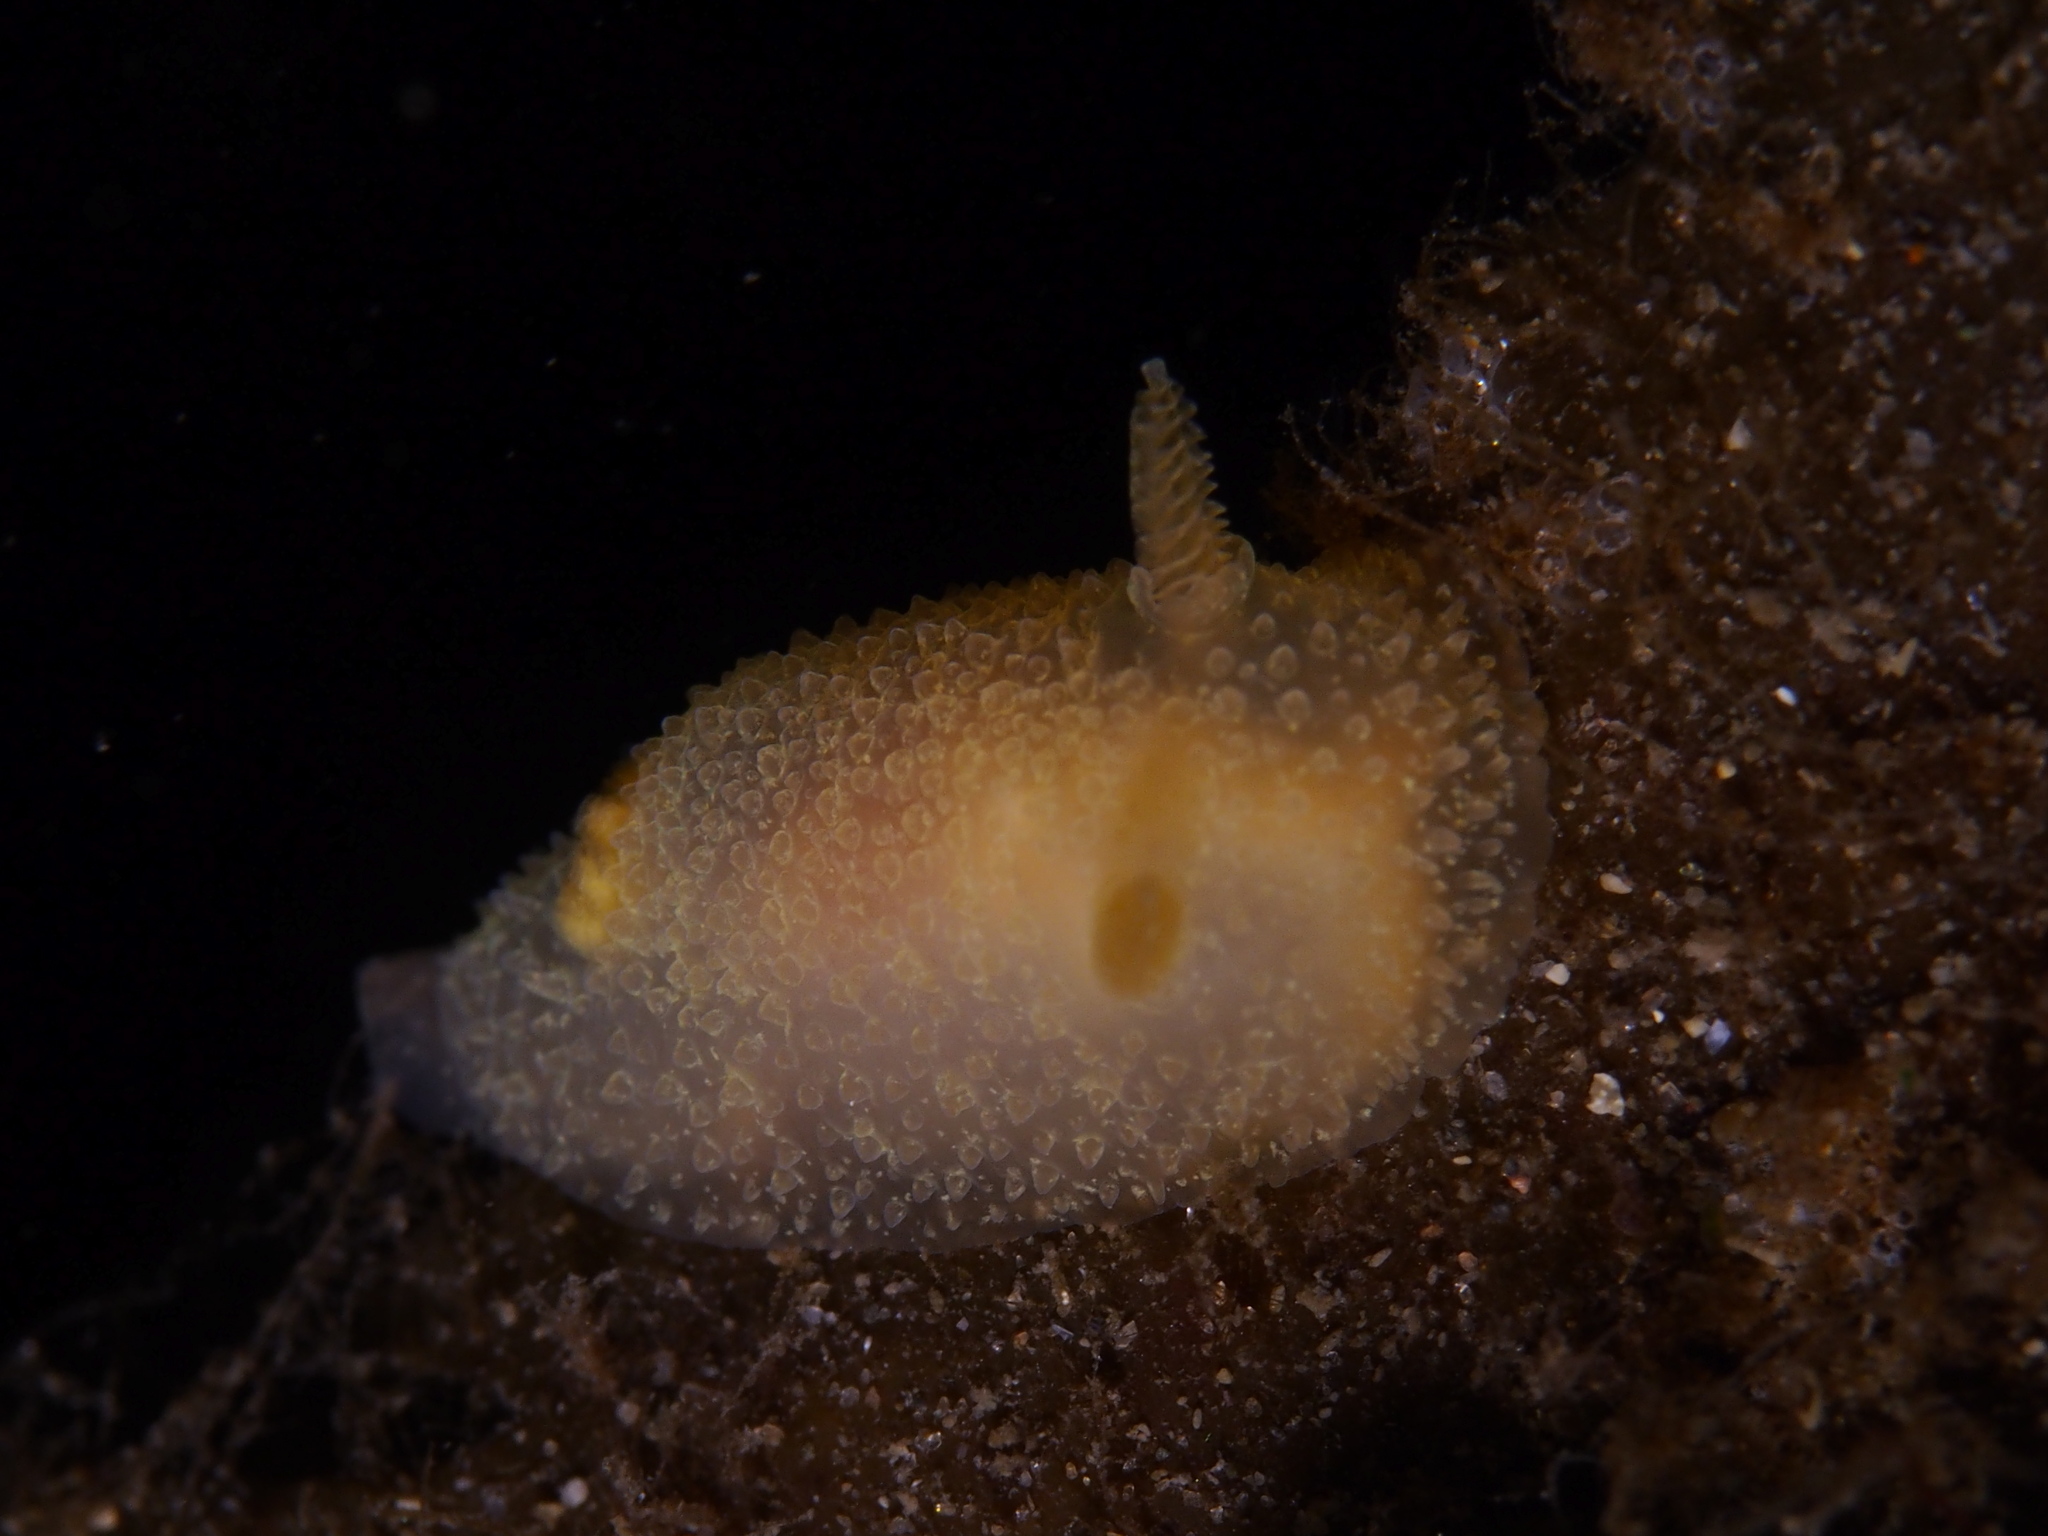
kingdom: Animalia
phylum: Mollusca
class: Gastropoda
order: Nudibranchia
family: Onchidorididae
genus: Acanthodoris
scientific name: Acanthodoris pilosa
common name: Hairy spiny doris
